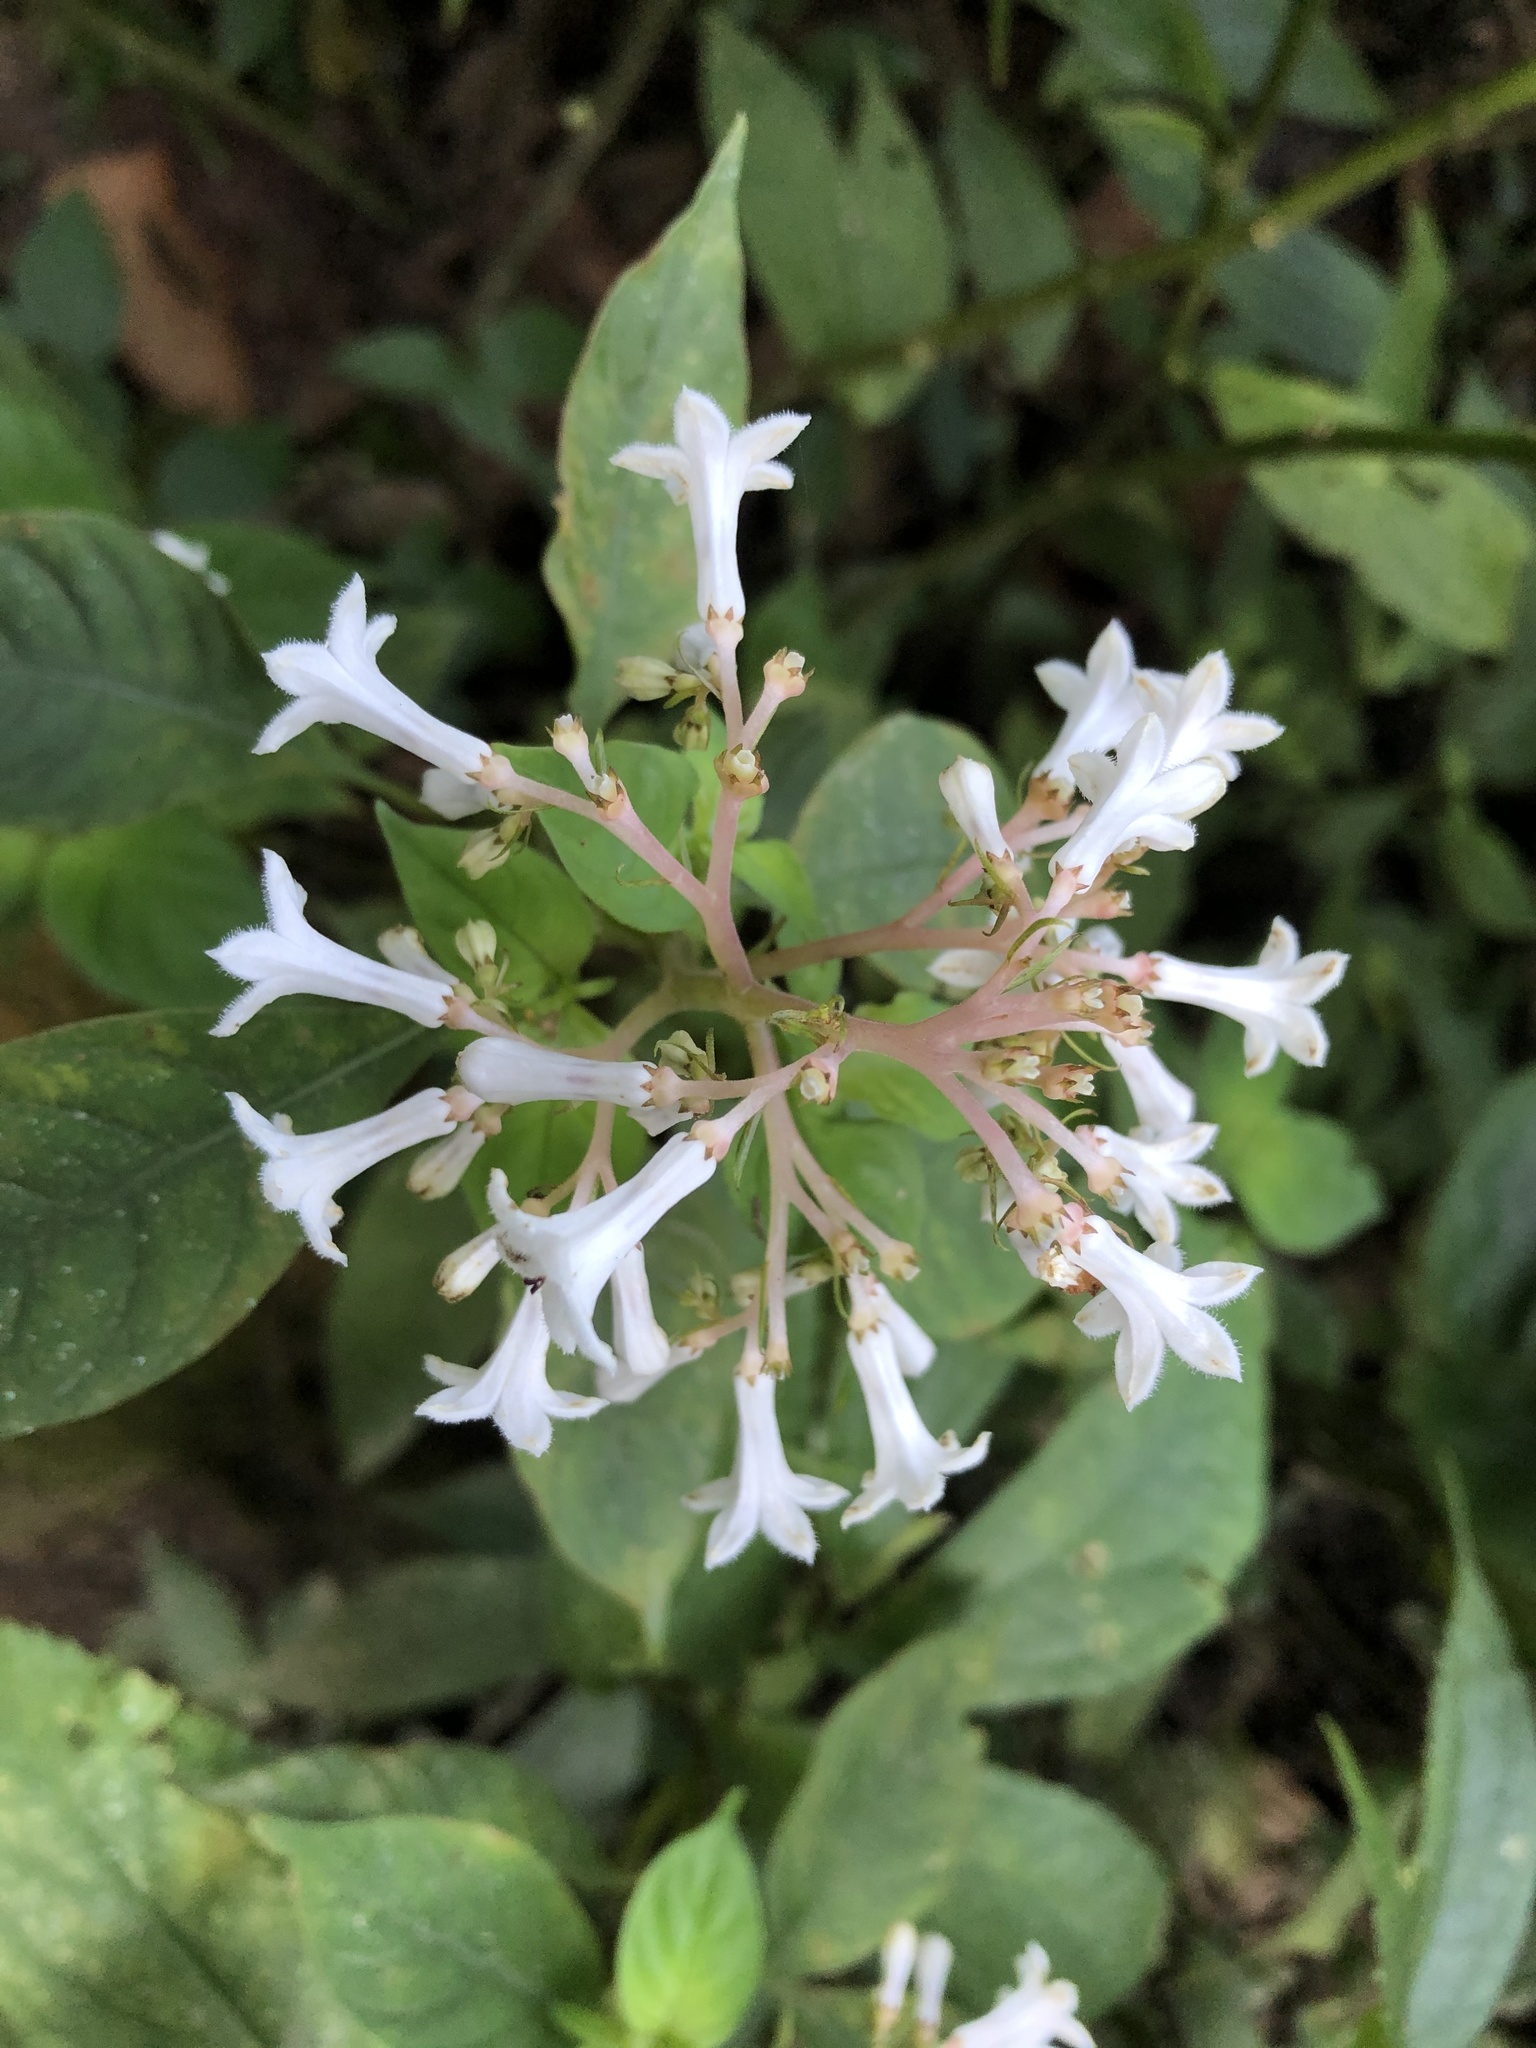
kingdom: Plantae
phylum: Tracheophyta
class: Magnoliopsida
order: Gentianales
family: Rubiaceae
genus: Ophiorrhiza
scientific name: Ophiorrhiza japonica
